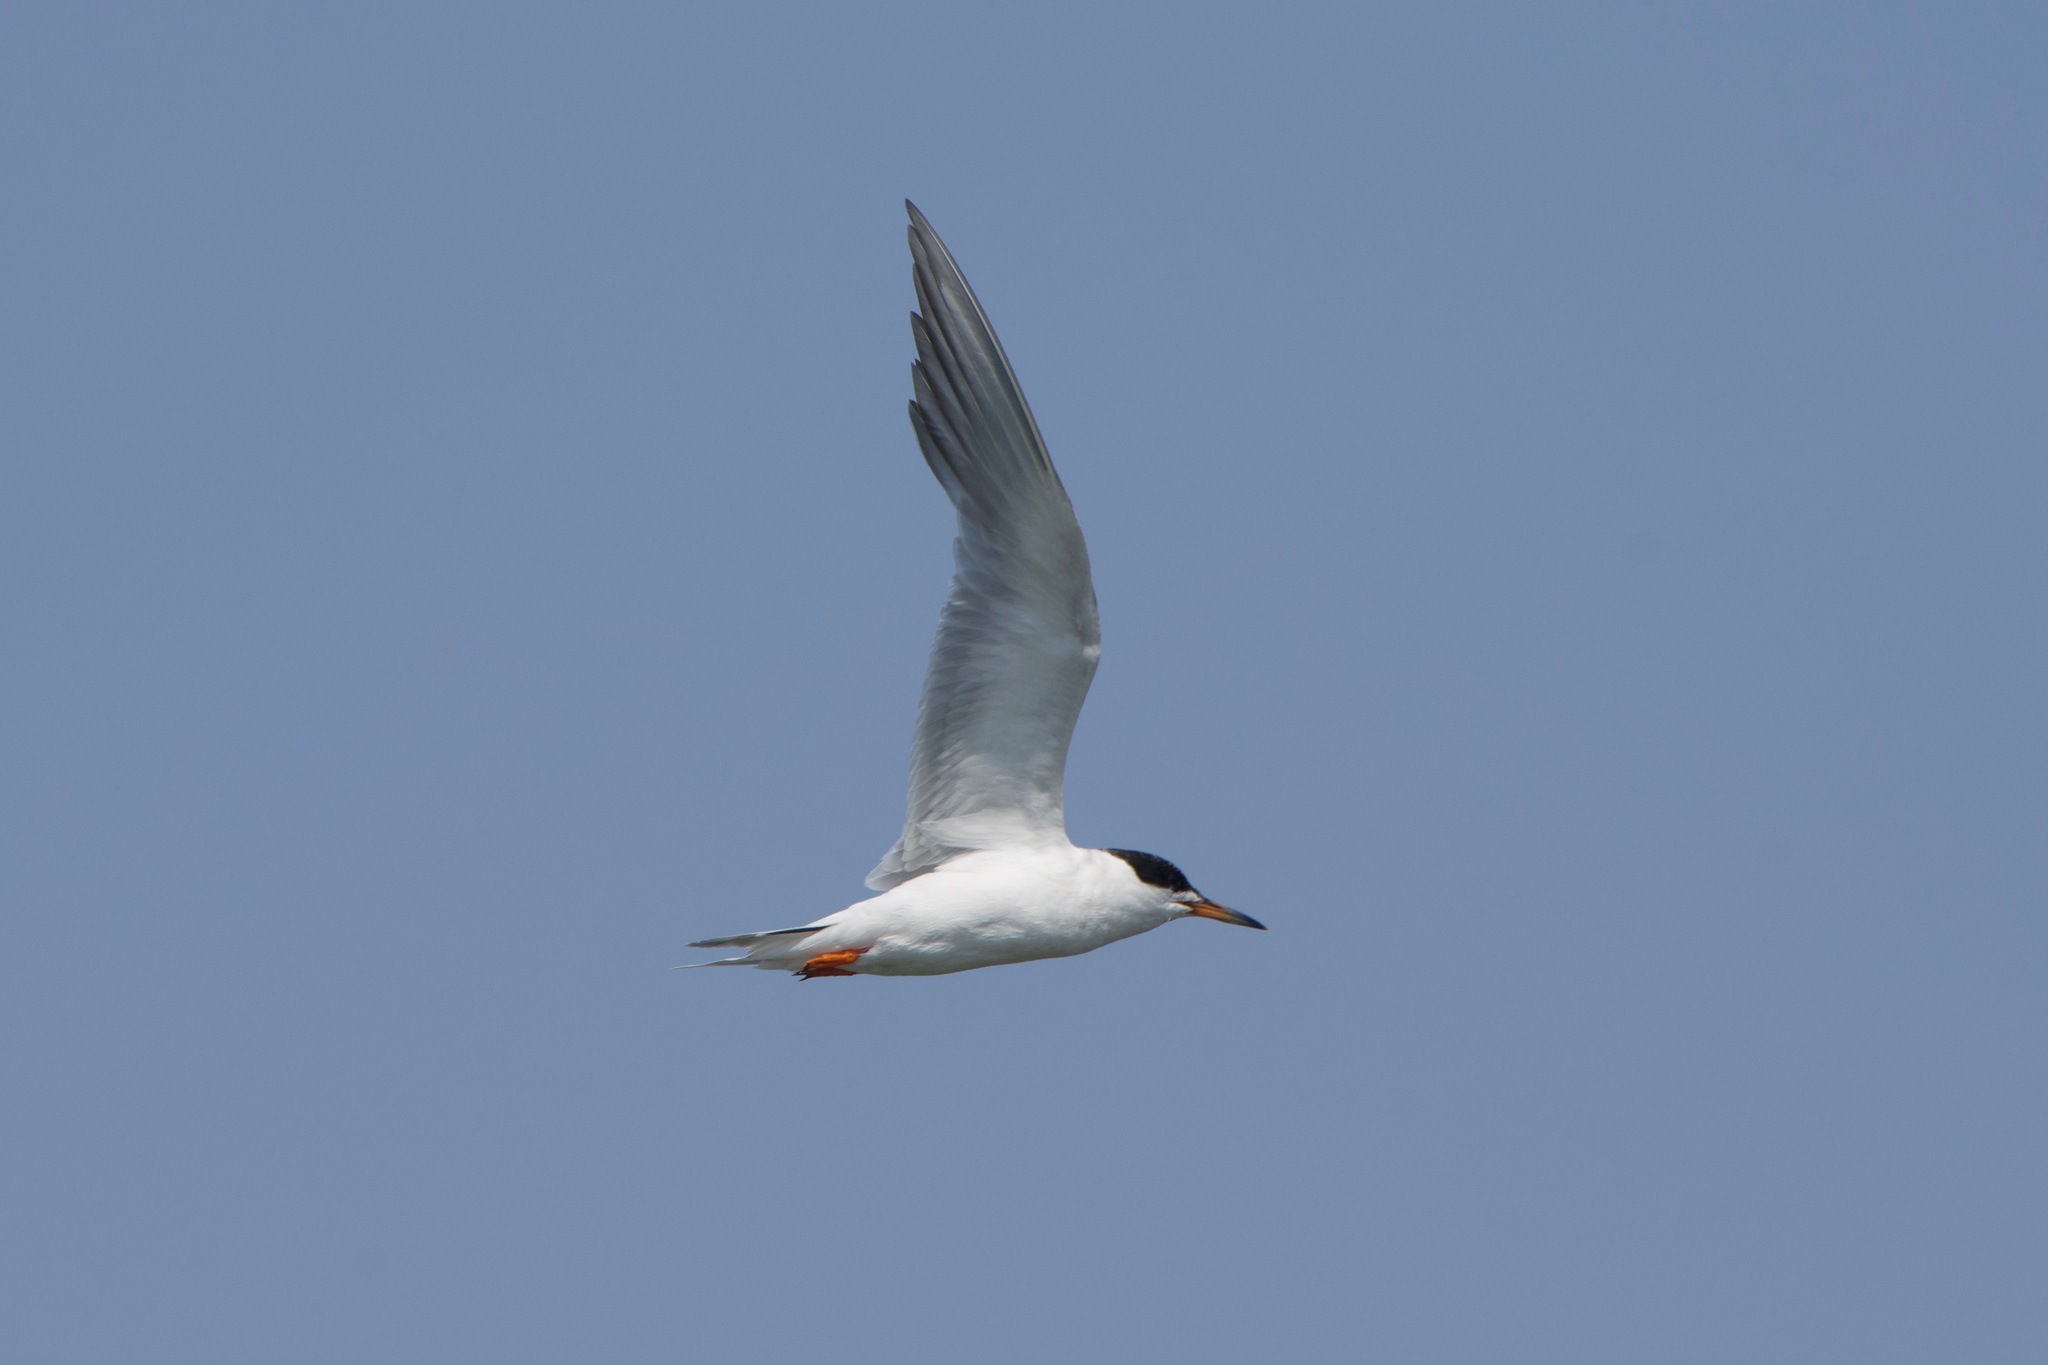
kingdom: Animalia
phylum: Chordata
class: Aves
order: Charadriiformes
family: Laridae
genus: Sterna
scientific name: Sterna forsteri
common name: Forster's tern
